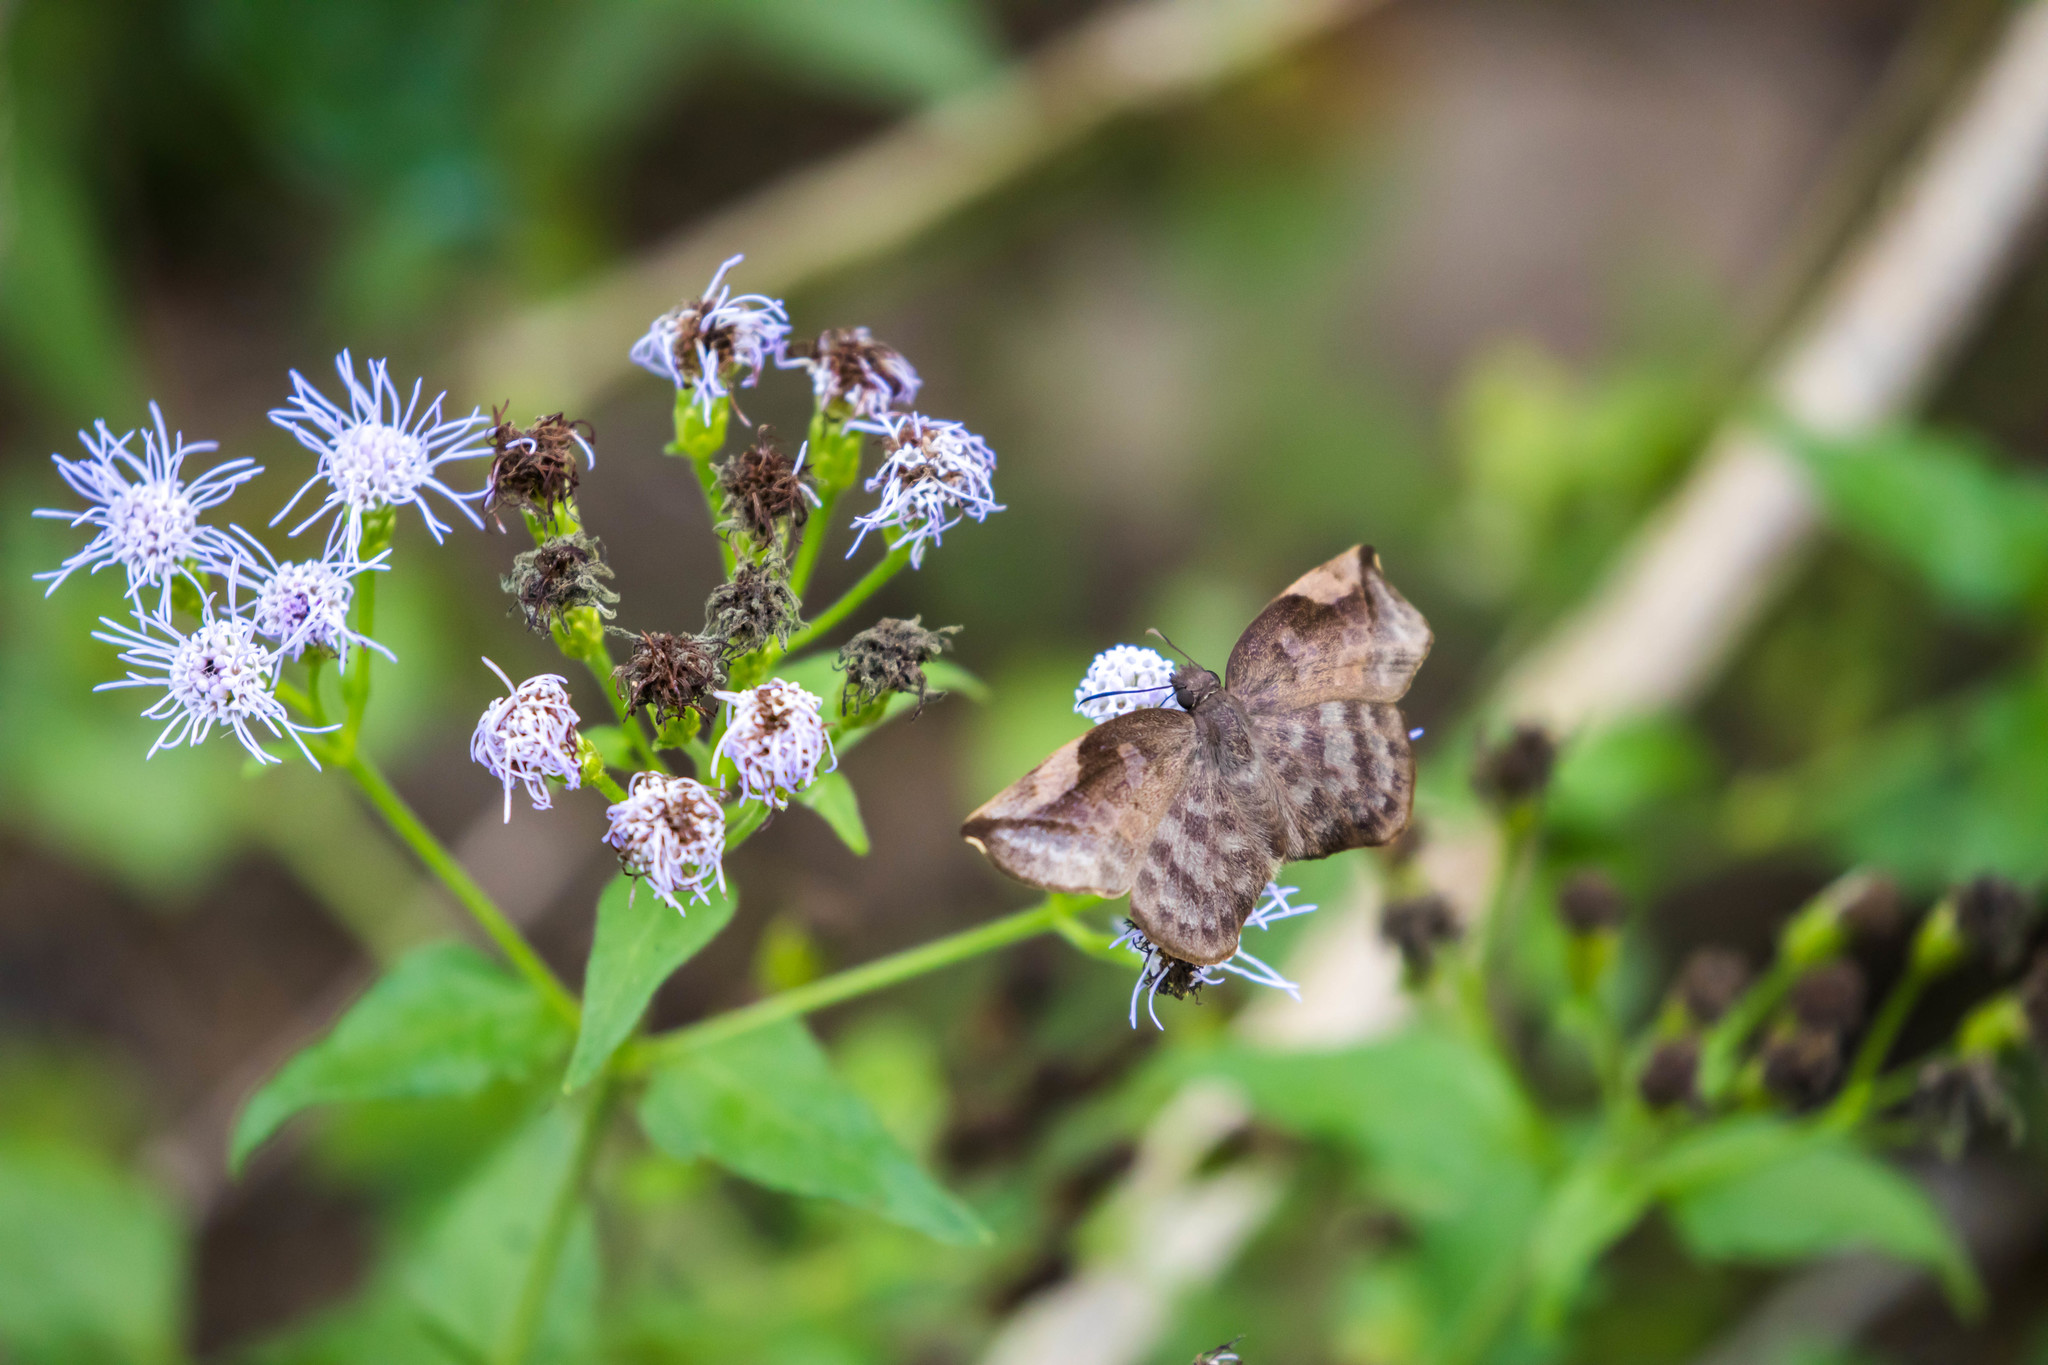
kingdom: Animalia
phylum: Arthropoda
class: Insecta
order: Lepidoptera
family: Hesperiidae
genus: Achlyodes
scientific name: Achlyodes thraso
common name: Sickle-winged skipper
